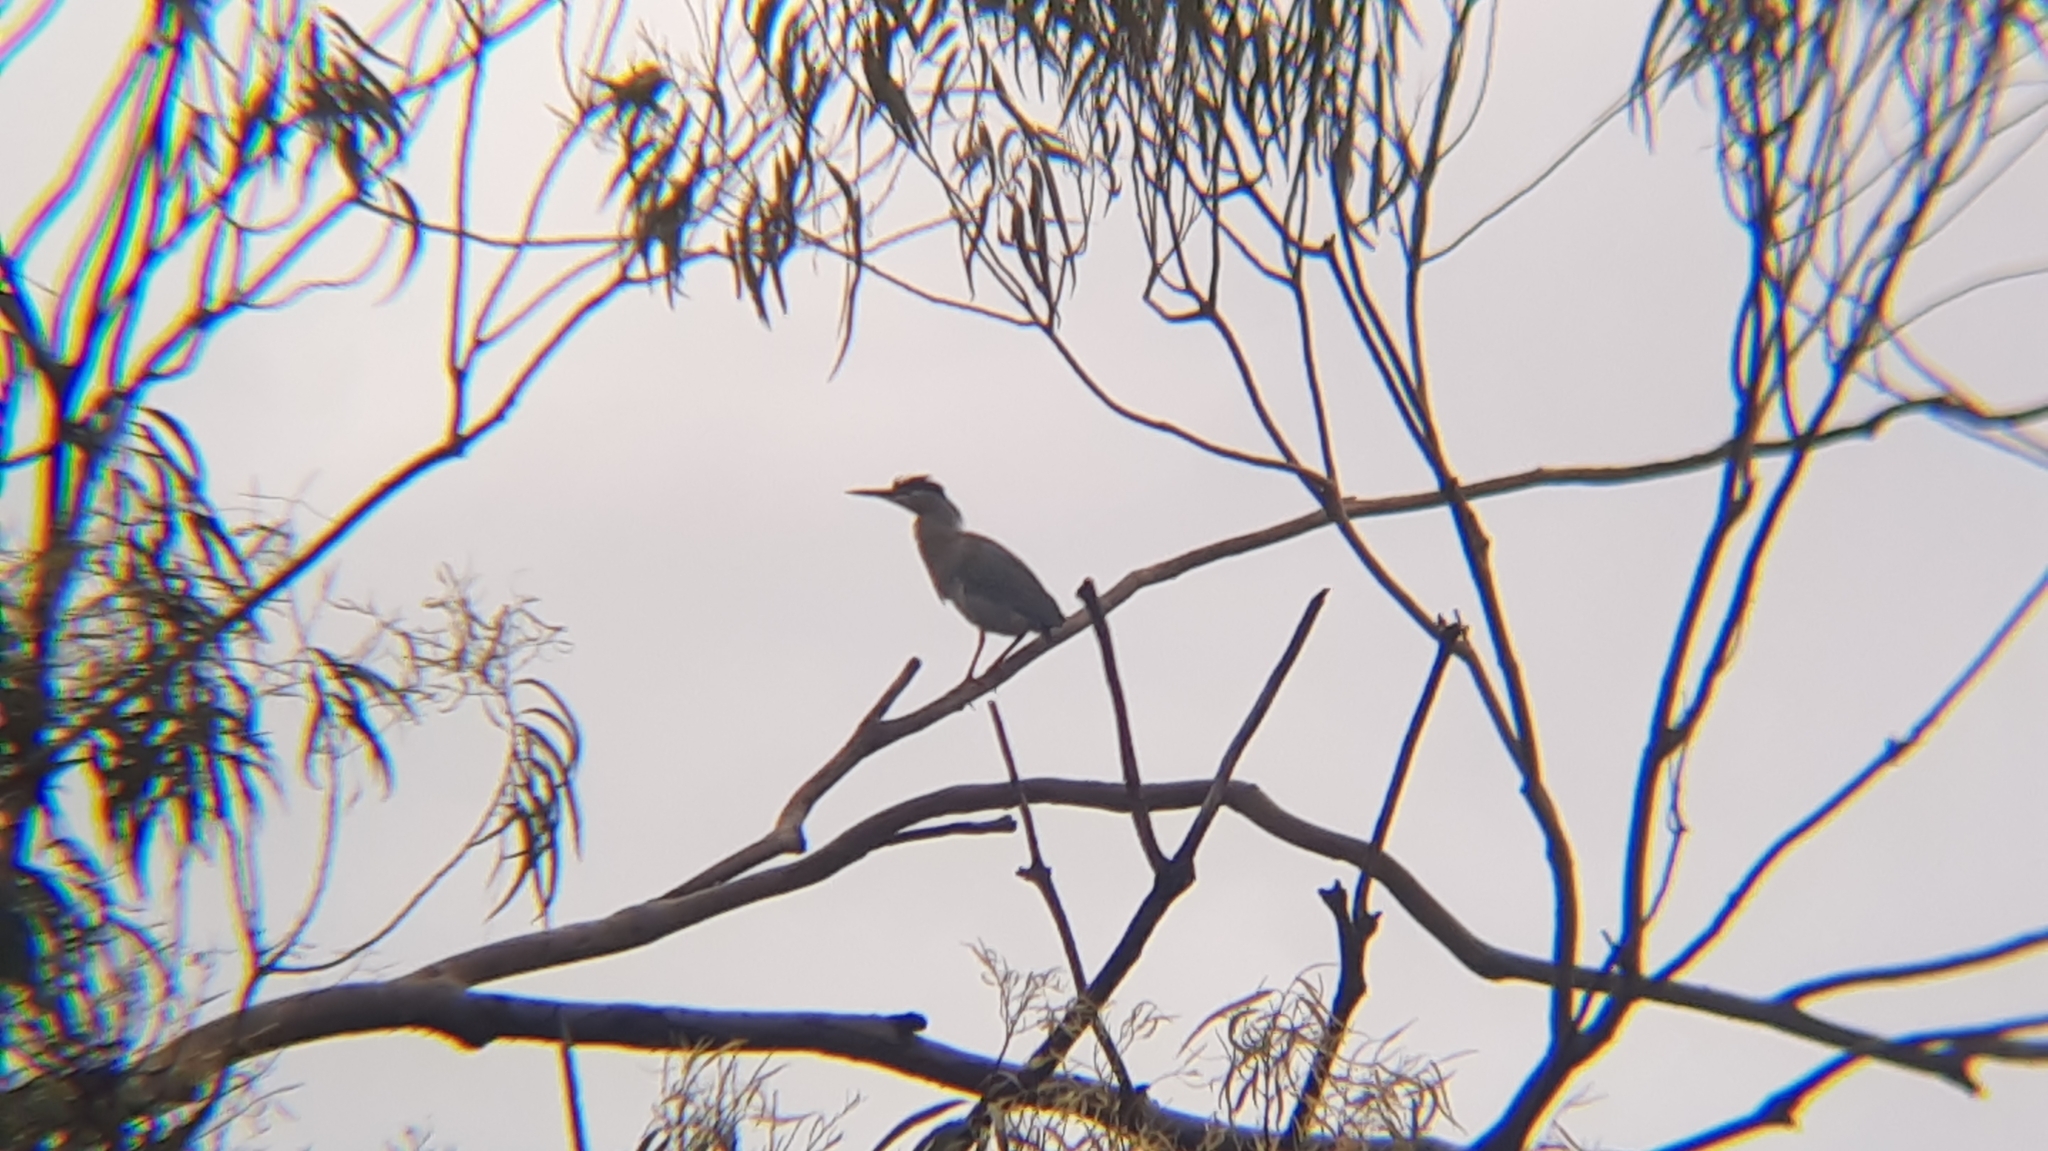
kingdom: Animalia
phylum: Chordata
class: Aves
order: Pelecaniformes
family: Ardeidae
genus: Butorides
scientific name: Butorides striata
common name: Striated heron
